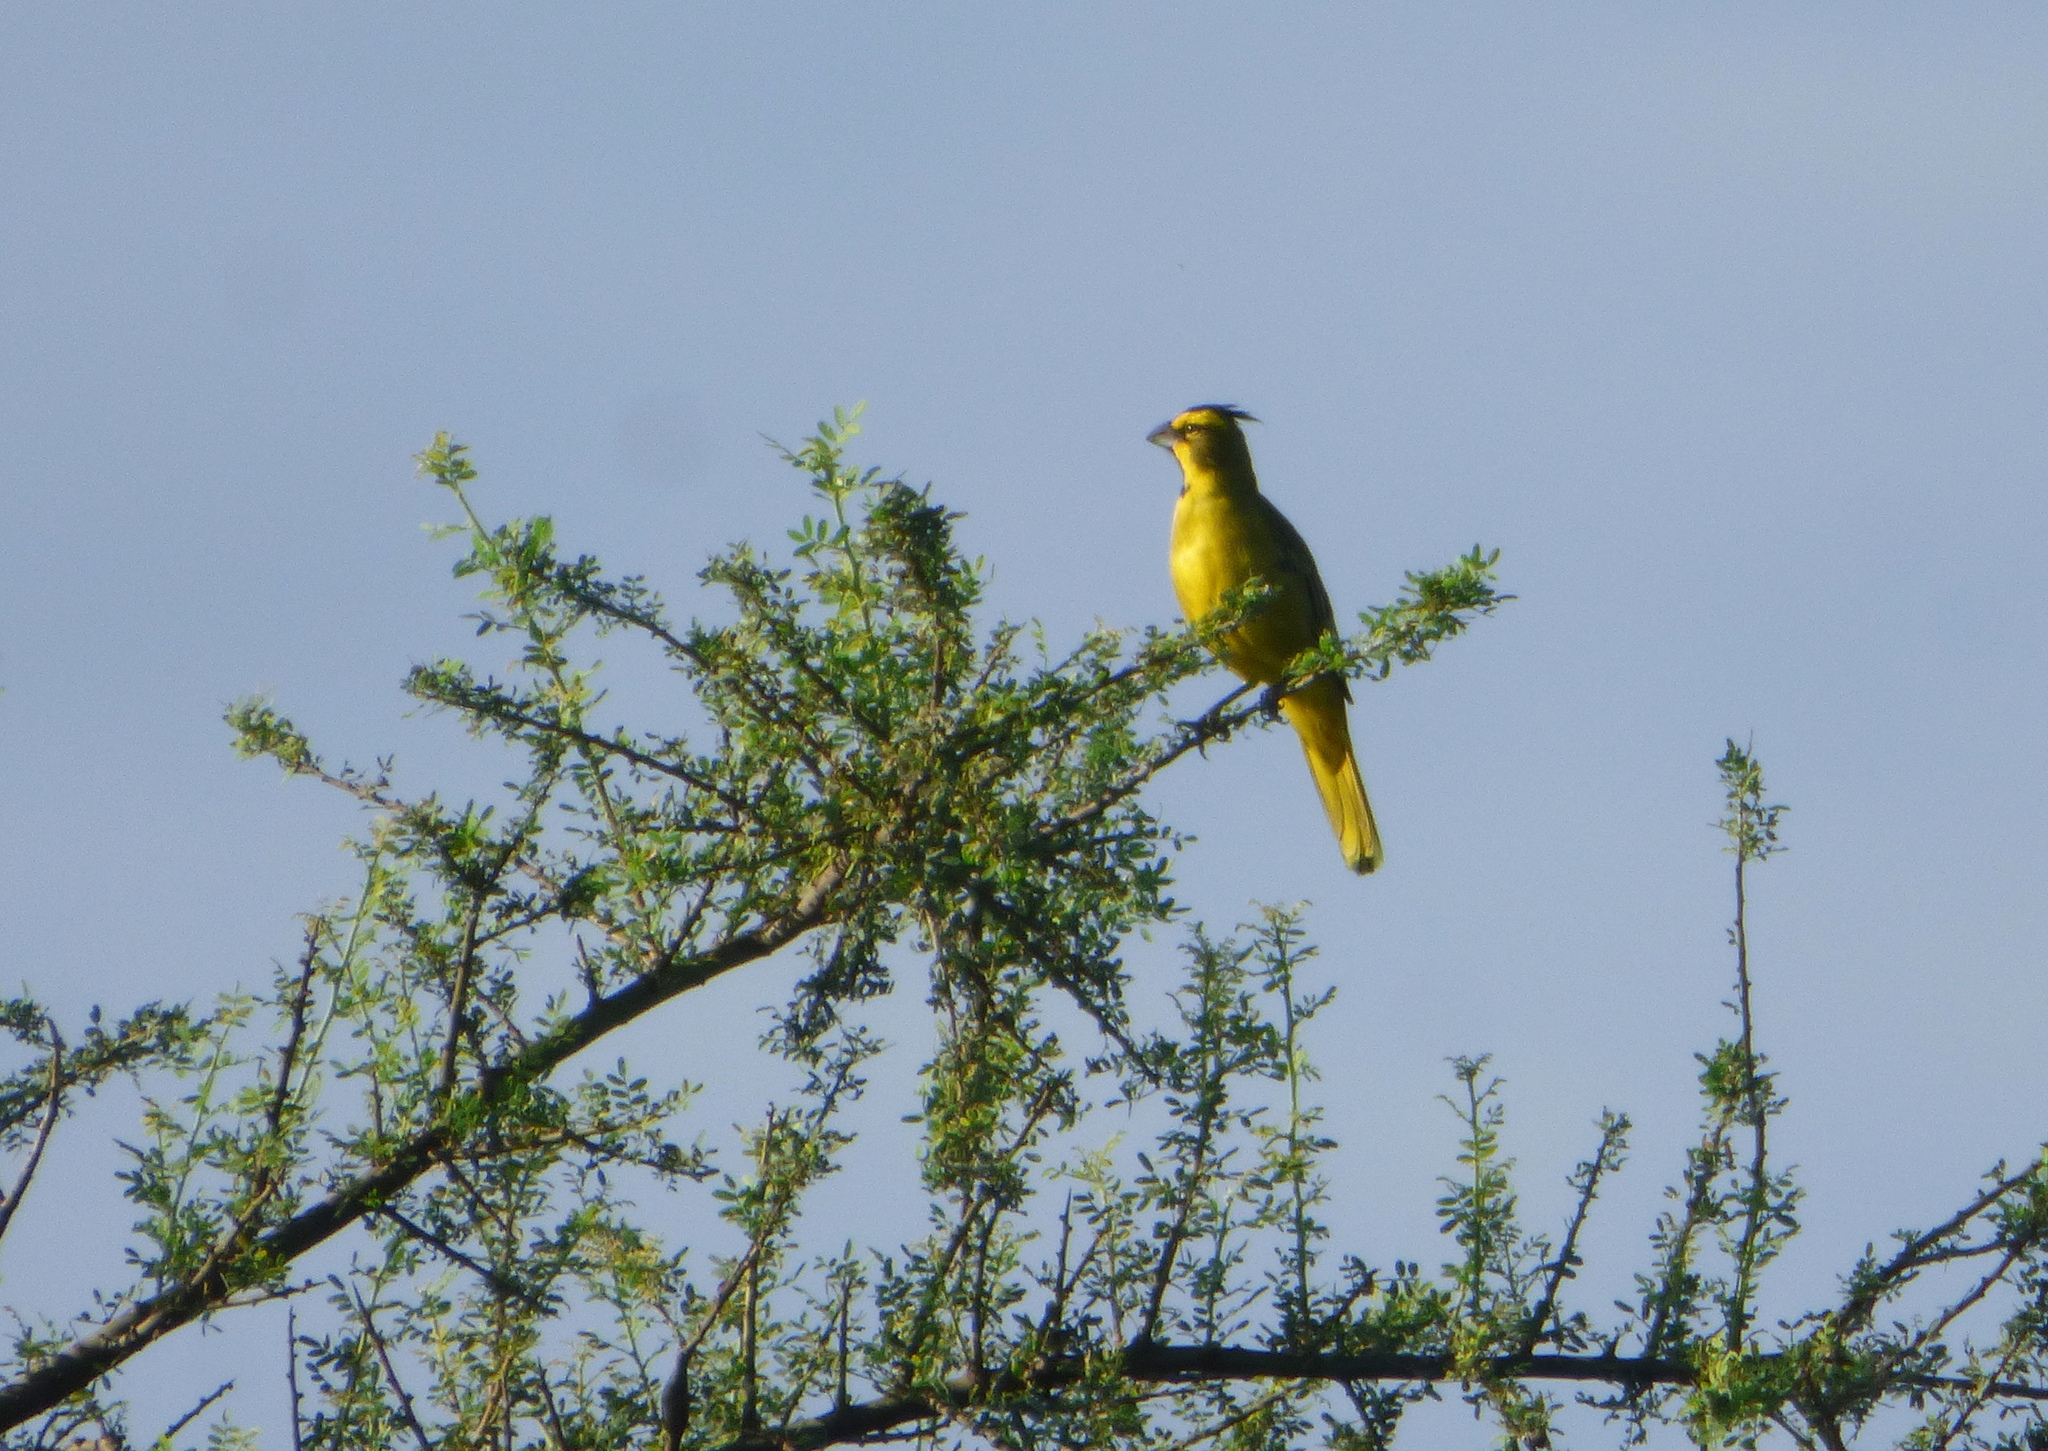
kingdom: Animalia
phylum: Chordata
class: Aves
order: Passeriformes
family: Thraupidae
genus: Gubernatrix
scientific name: Gubernatrix cristata
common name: Yellow cardinal
